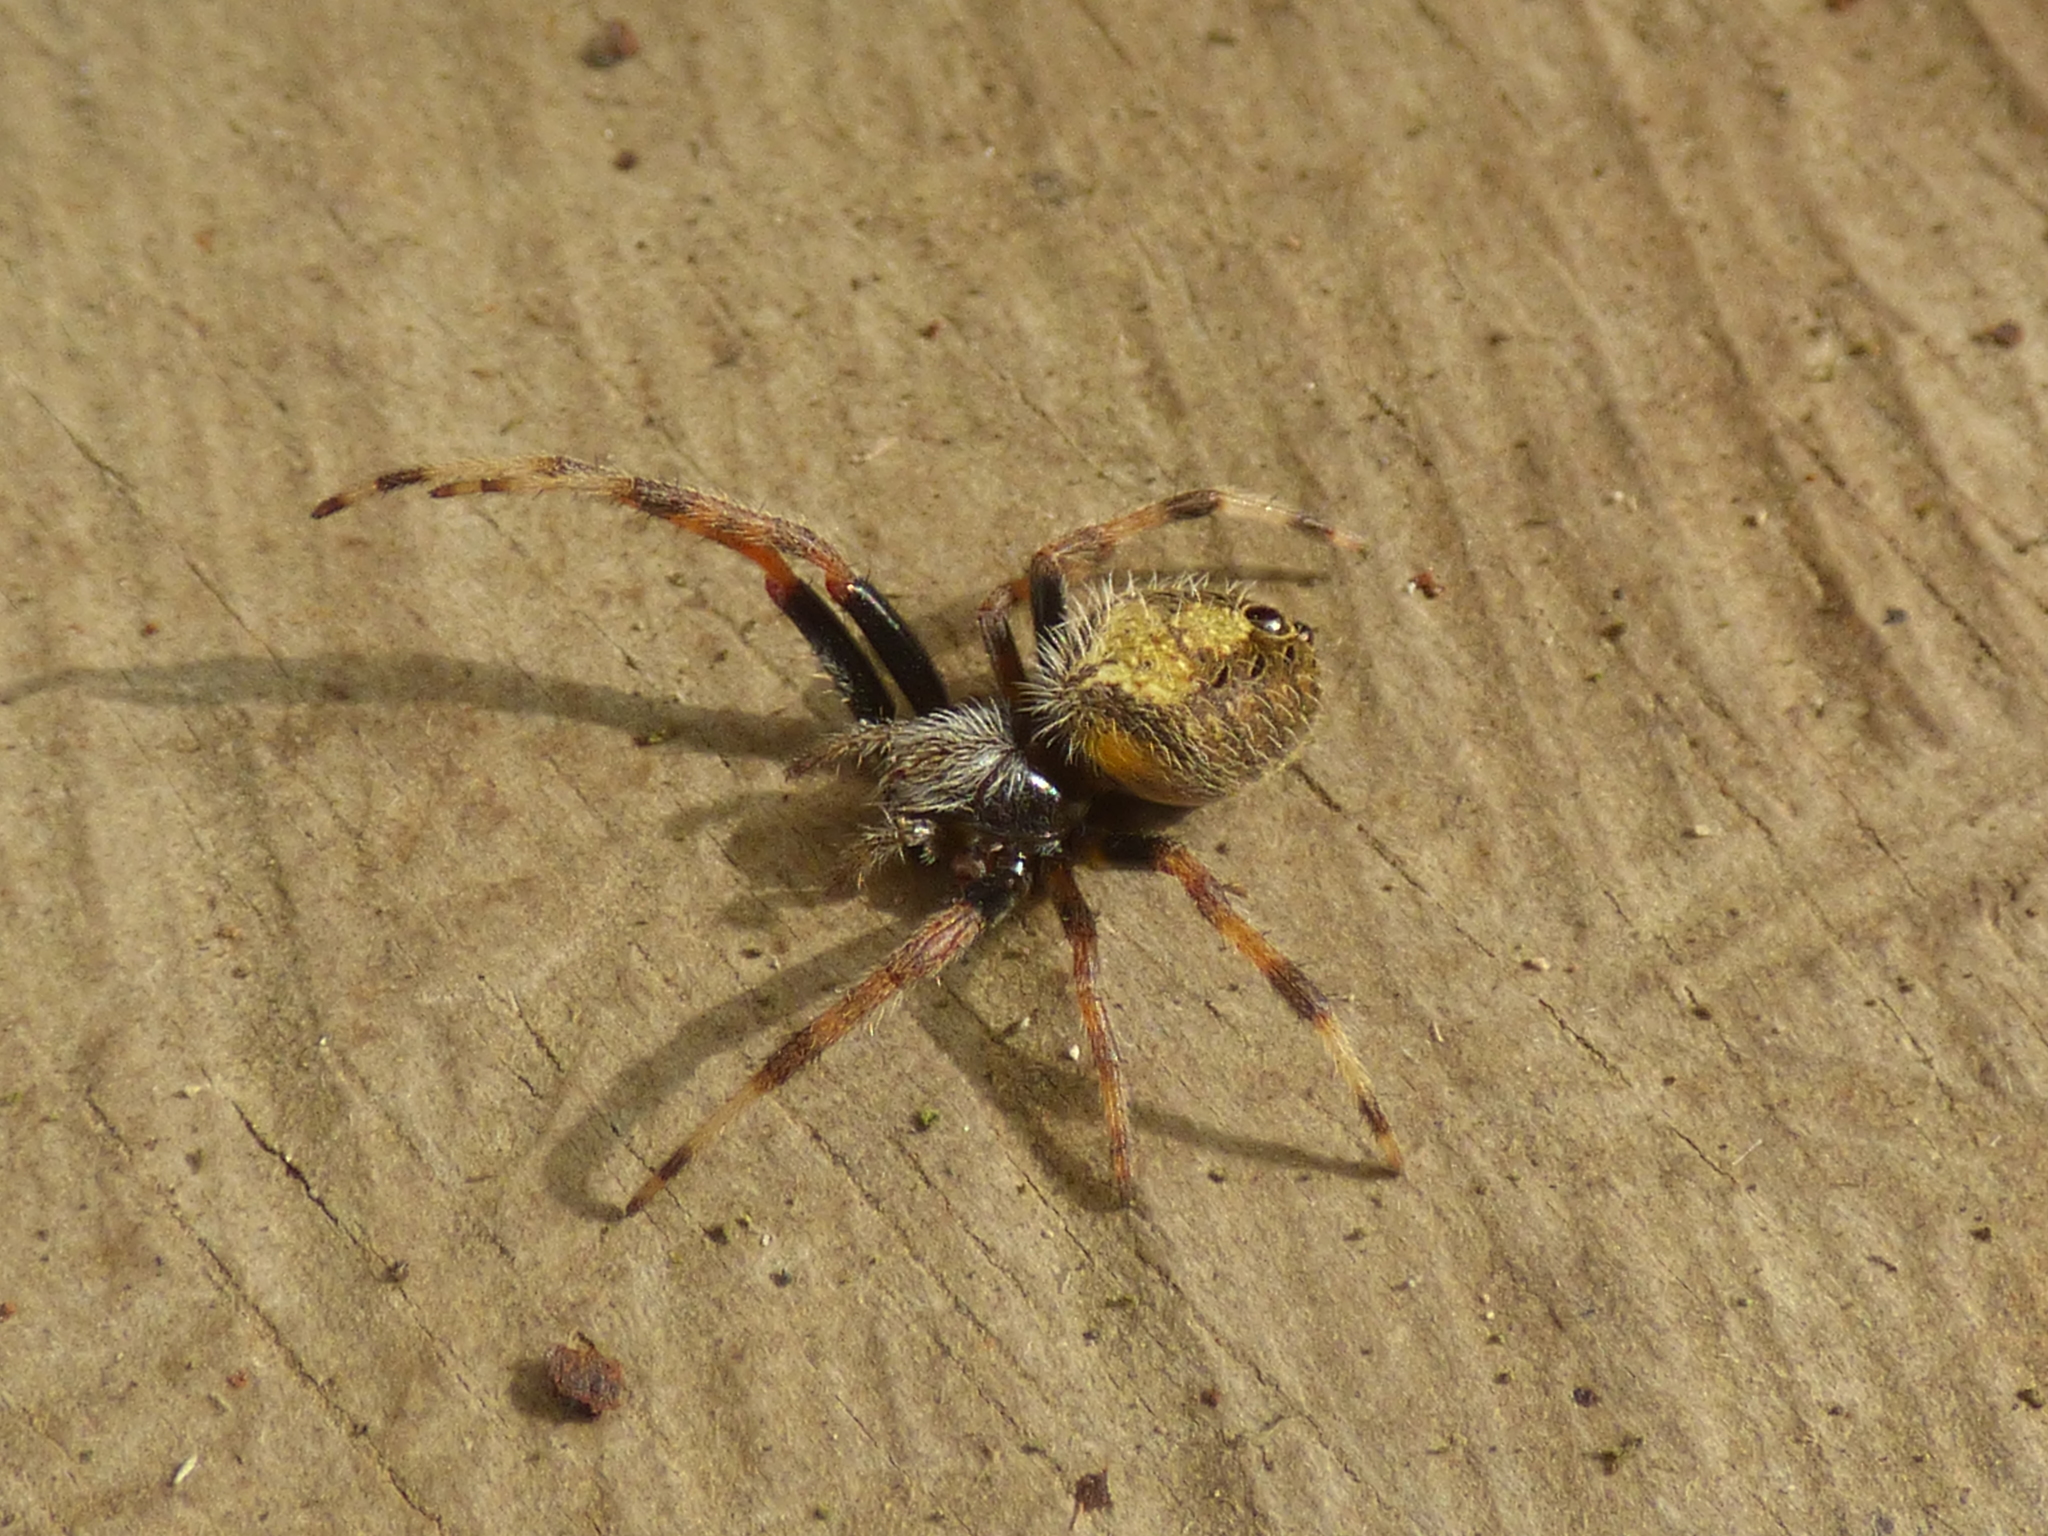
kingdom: Animalia
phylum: Arthropoda
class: Arachnida
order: Araneae
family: Araneidae
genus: Eriophora
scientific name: Eriophora ravilla
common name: Orb weavers
